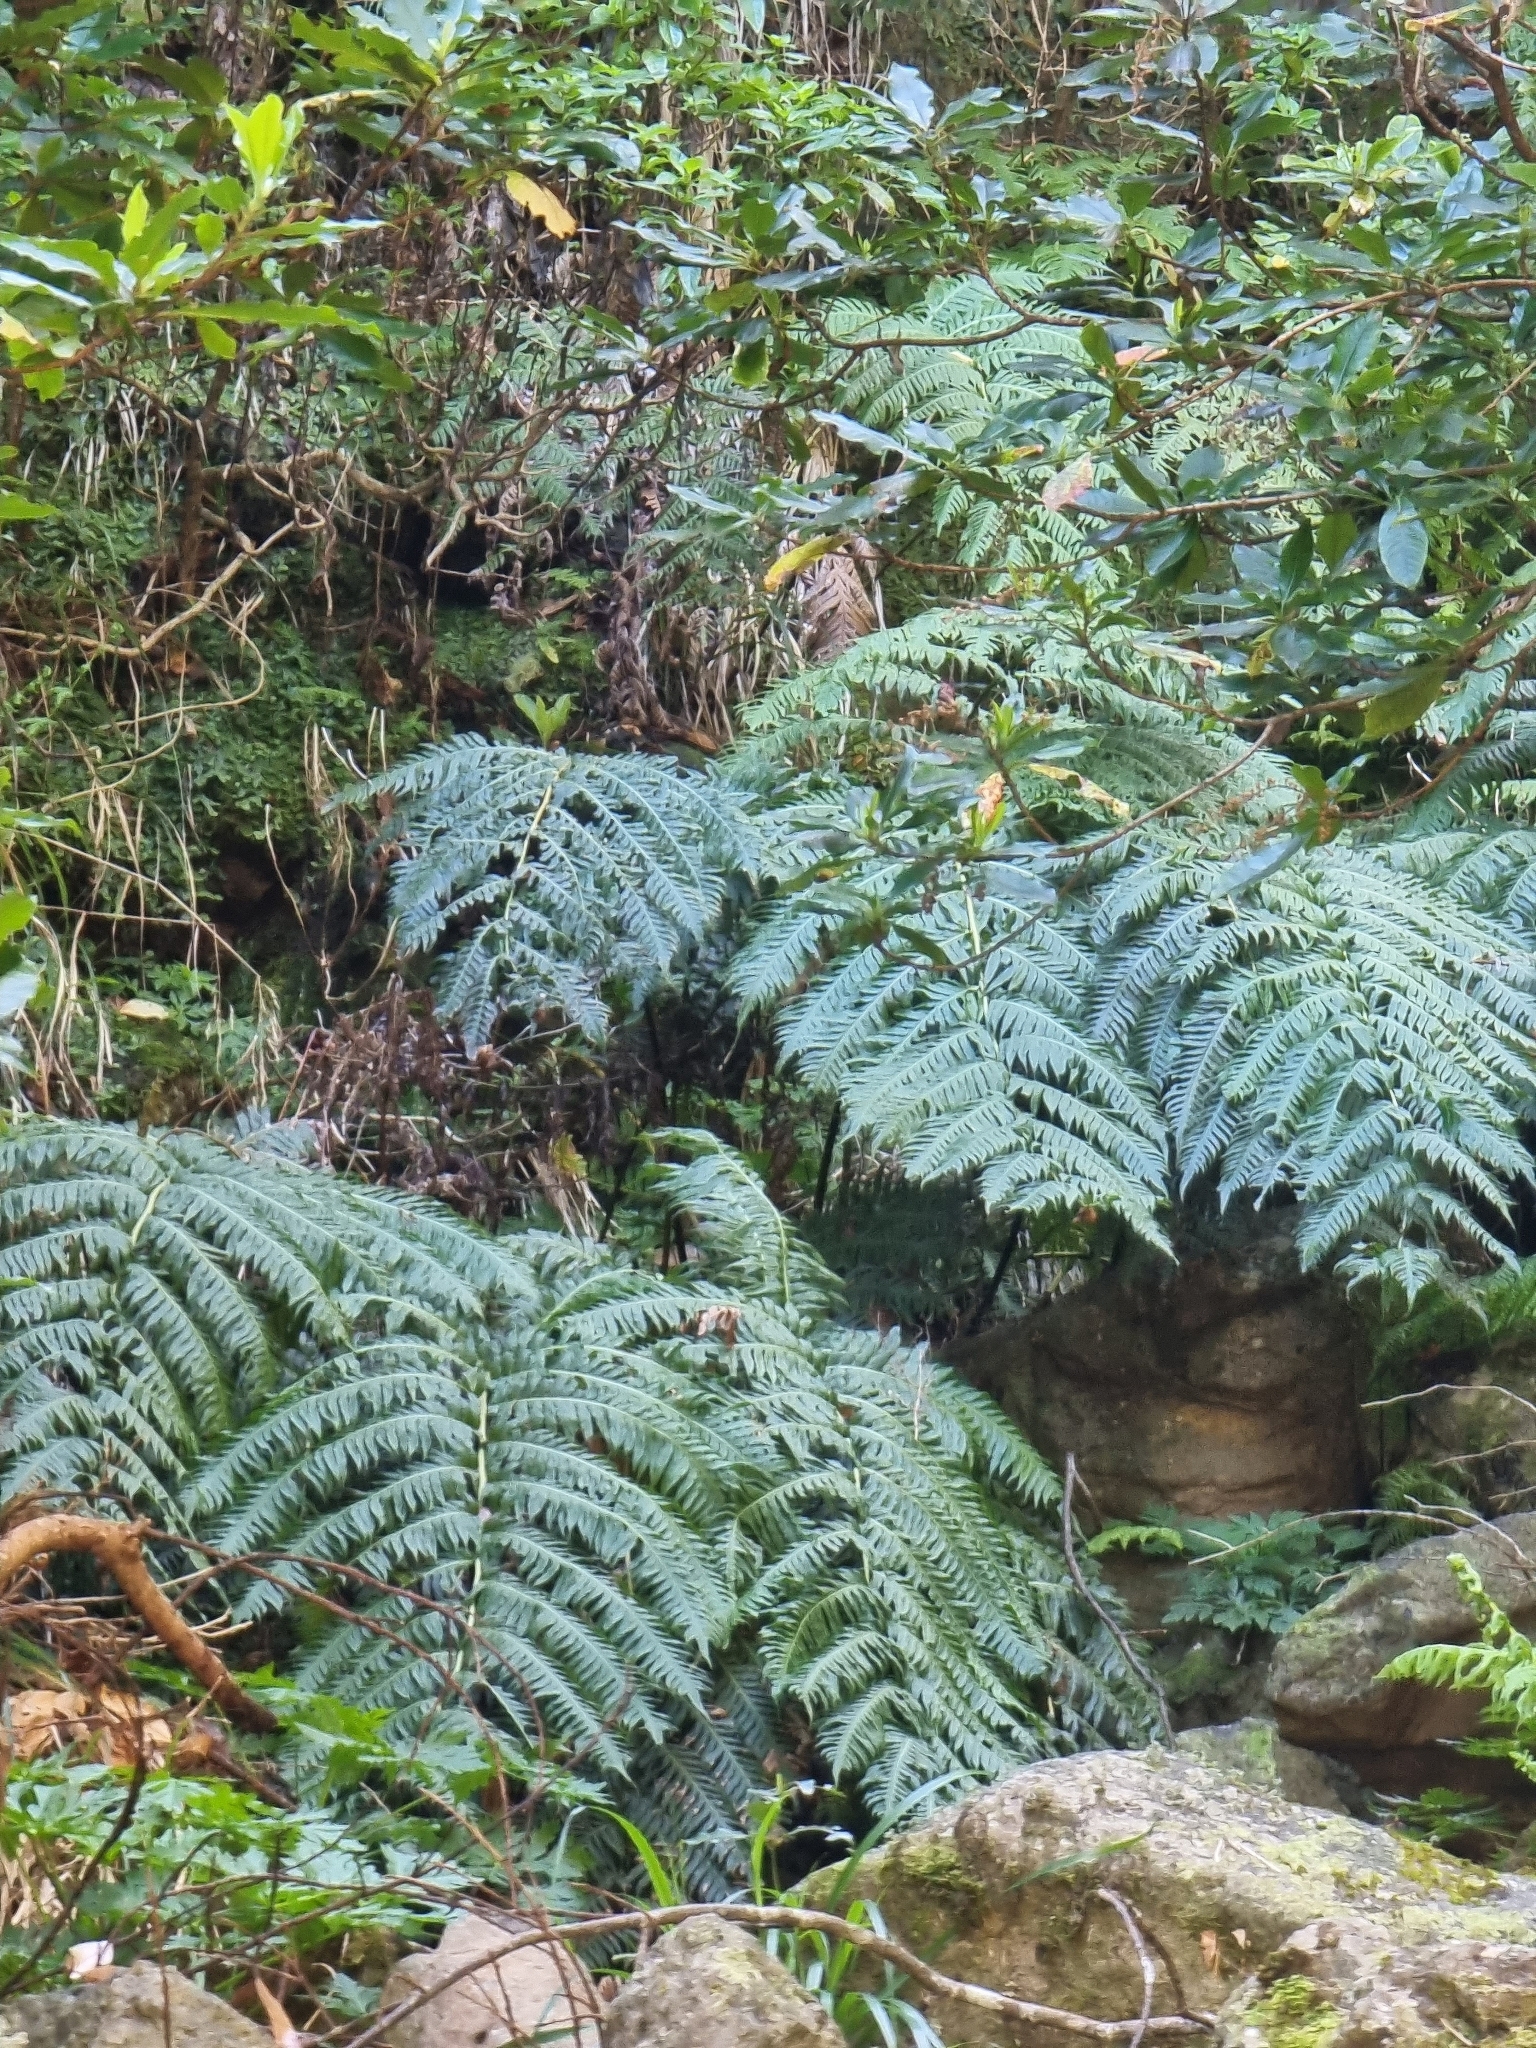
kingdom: Plantae
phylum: Tracheophyta
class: Polypodiopsida
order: Polypodiales
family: Blechnaceae
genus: Woodwardia
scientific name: Woodwardia radicans
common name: Rooting chainfern
